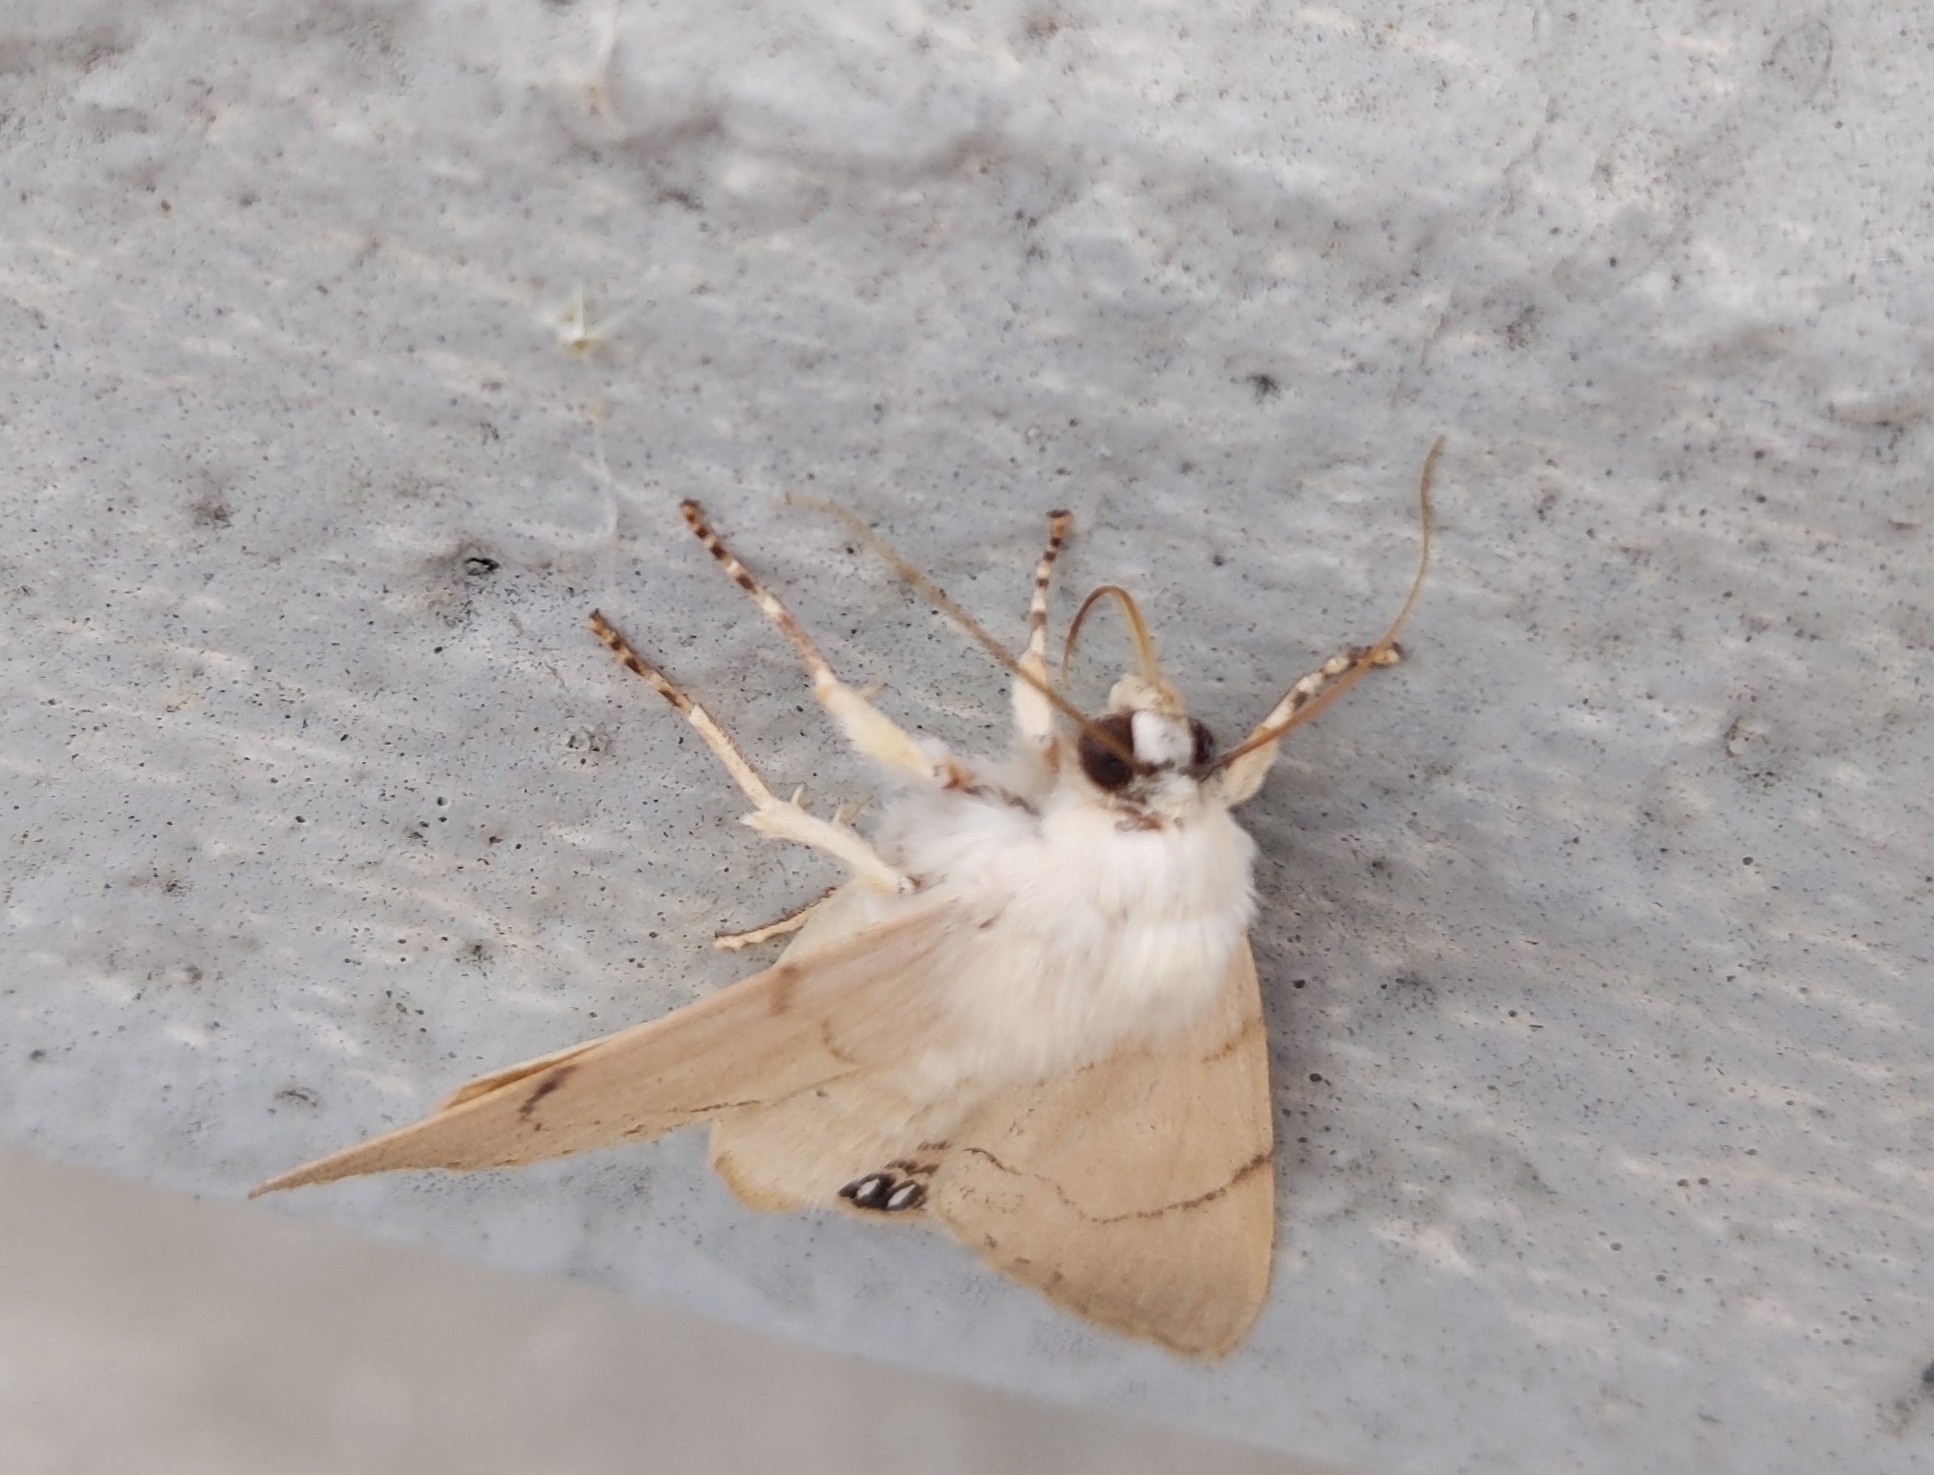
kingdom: Animalia
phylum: Arthropoda
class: Insecta
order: Lepidoptera
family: Erebidae
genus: Litoprosopus
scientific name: Litoprosopus coachella
